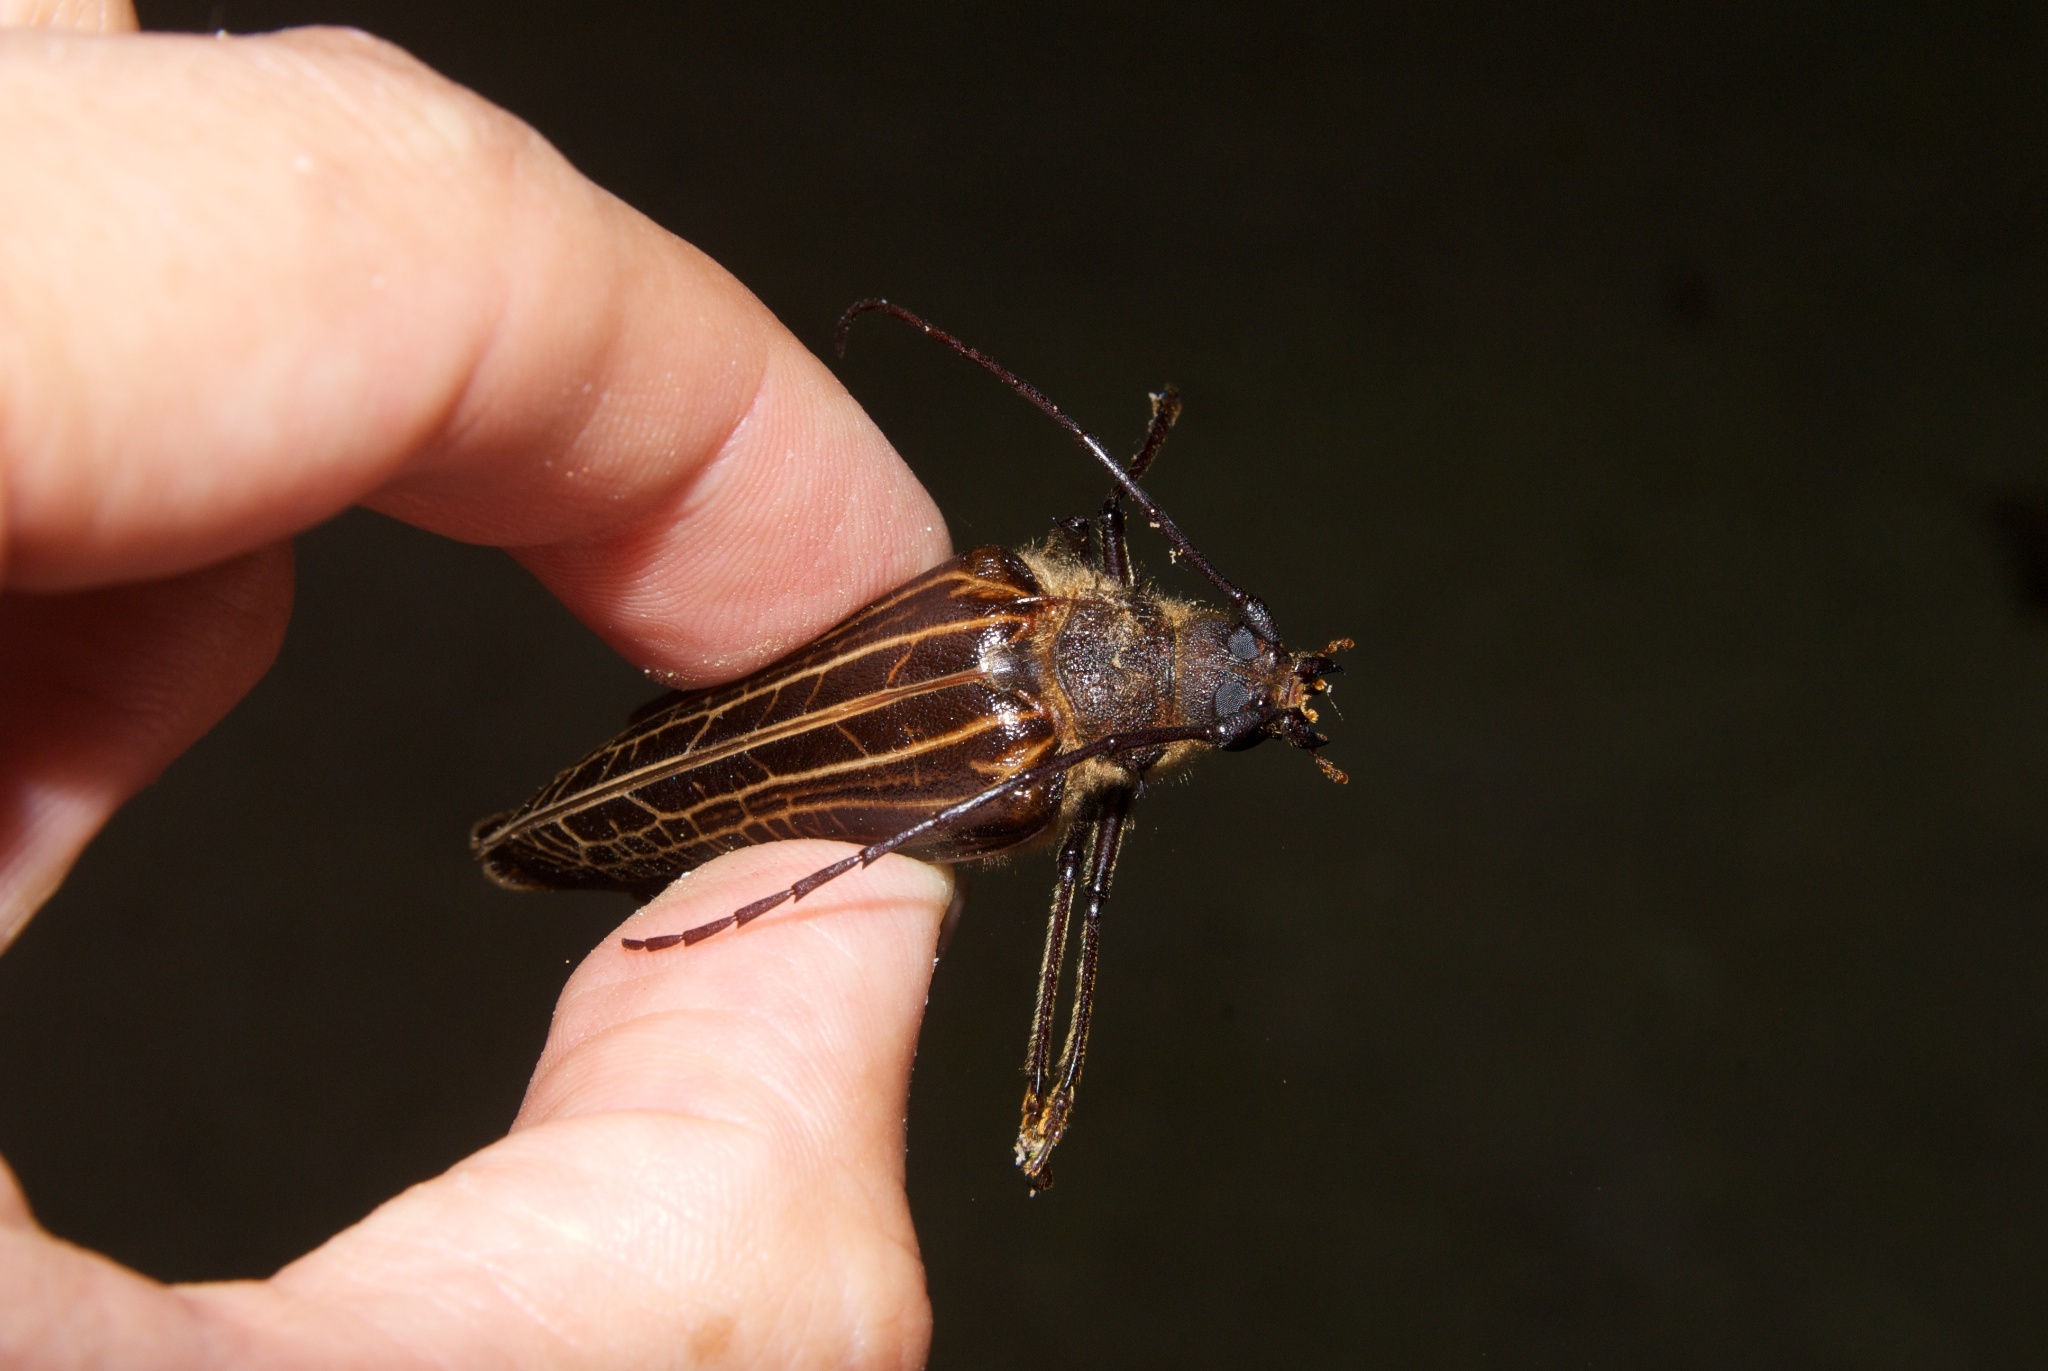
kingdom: Animalia
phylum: Arthropoda
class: Insecta
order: Coleoptera
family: Cerambycidae
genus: Prionoplus
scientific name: Prionoplus reticularis
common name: Huhu beetle
